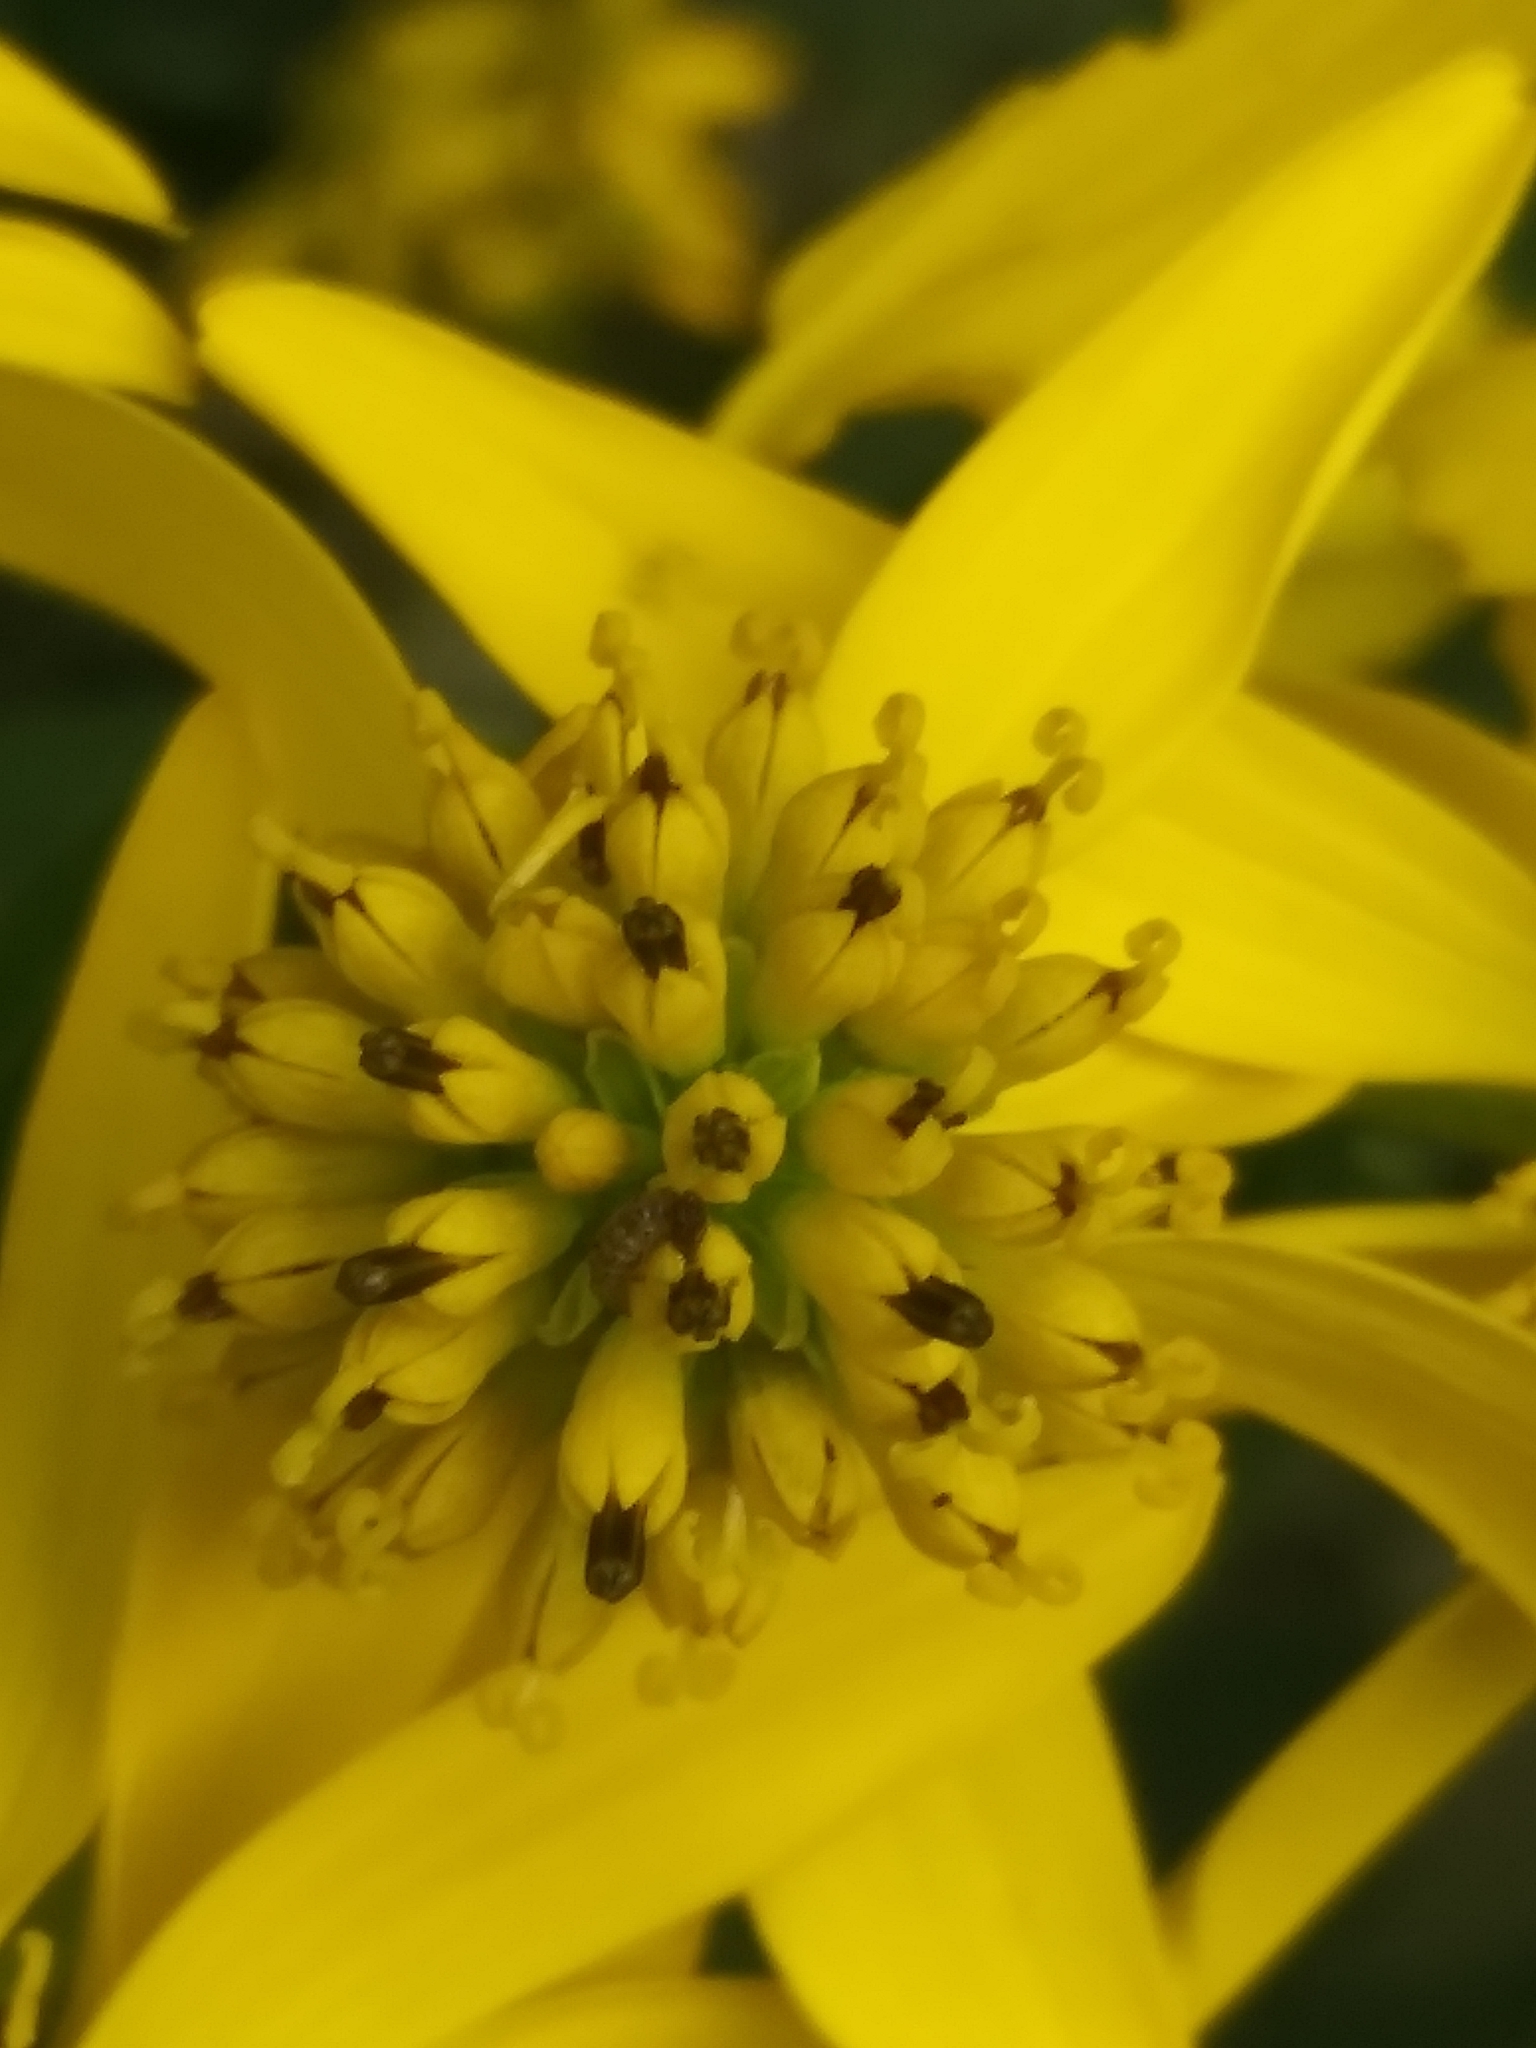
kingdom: Plantae
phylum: Tracheophyta
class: Magnoliopsida
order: Asterales
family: Asteraceae
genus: Verbesina
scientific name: Verbesina alternifolia
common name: Wingstem
